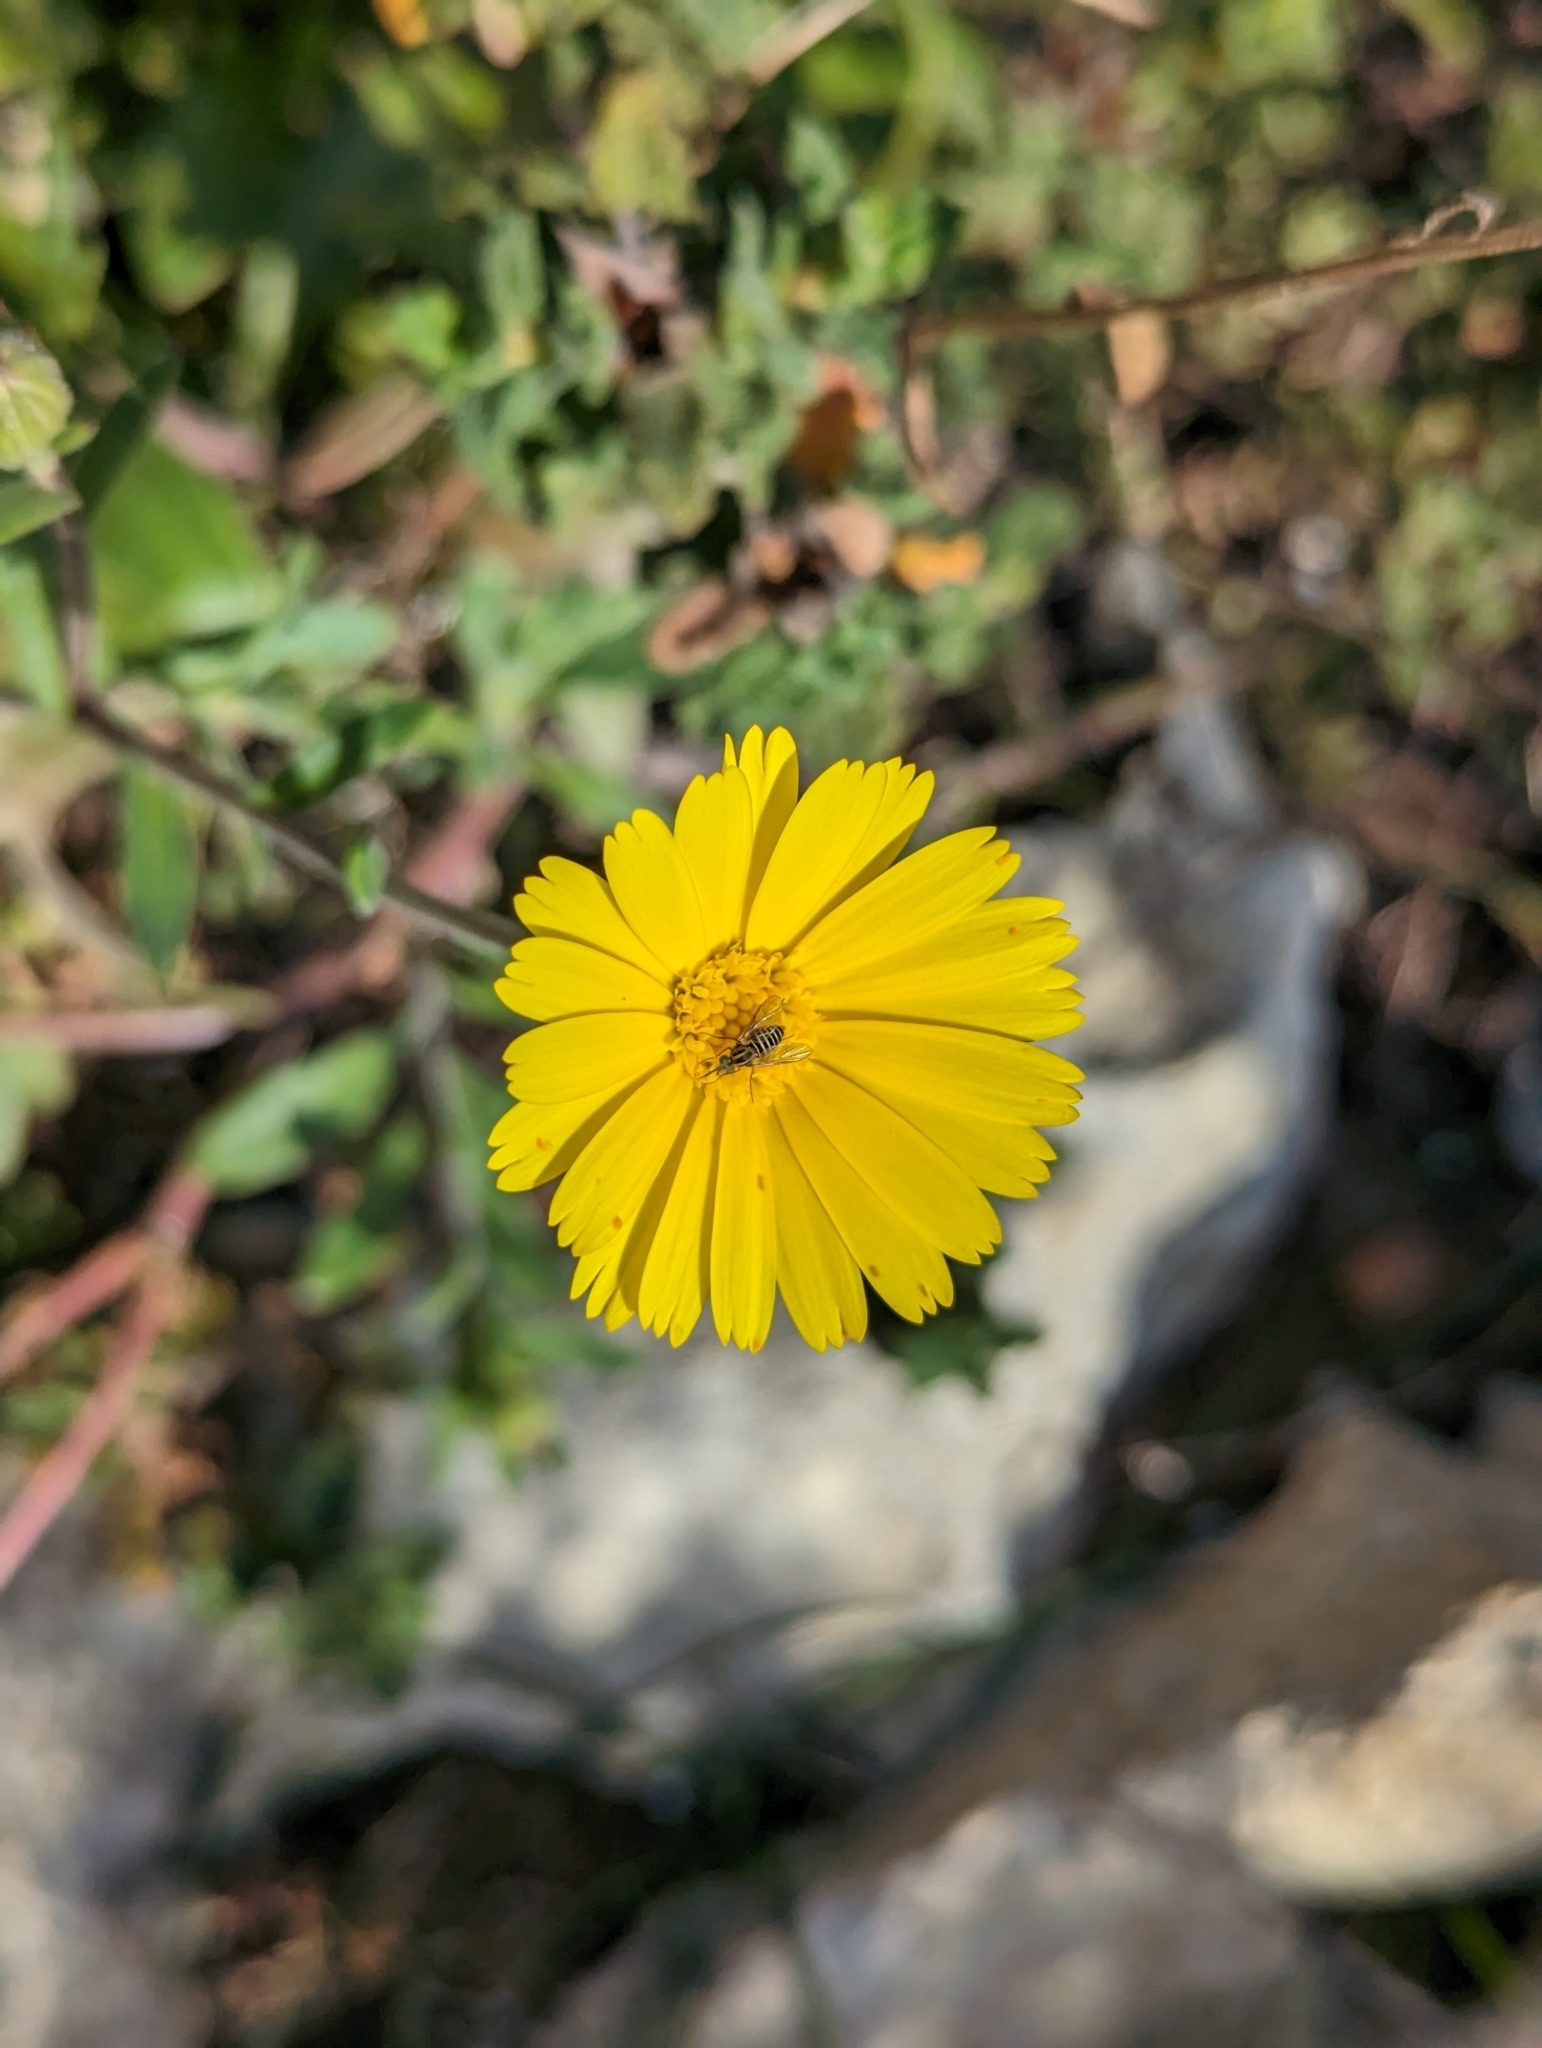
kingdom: Plantae
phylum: Tracheophyta
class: Magnoliopsida
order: Asterales
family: Asteraceae
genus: Calendula
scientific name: Calendula suffruticosa
